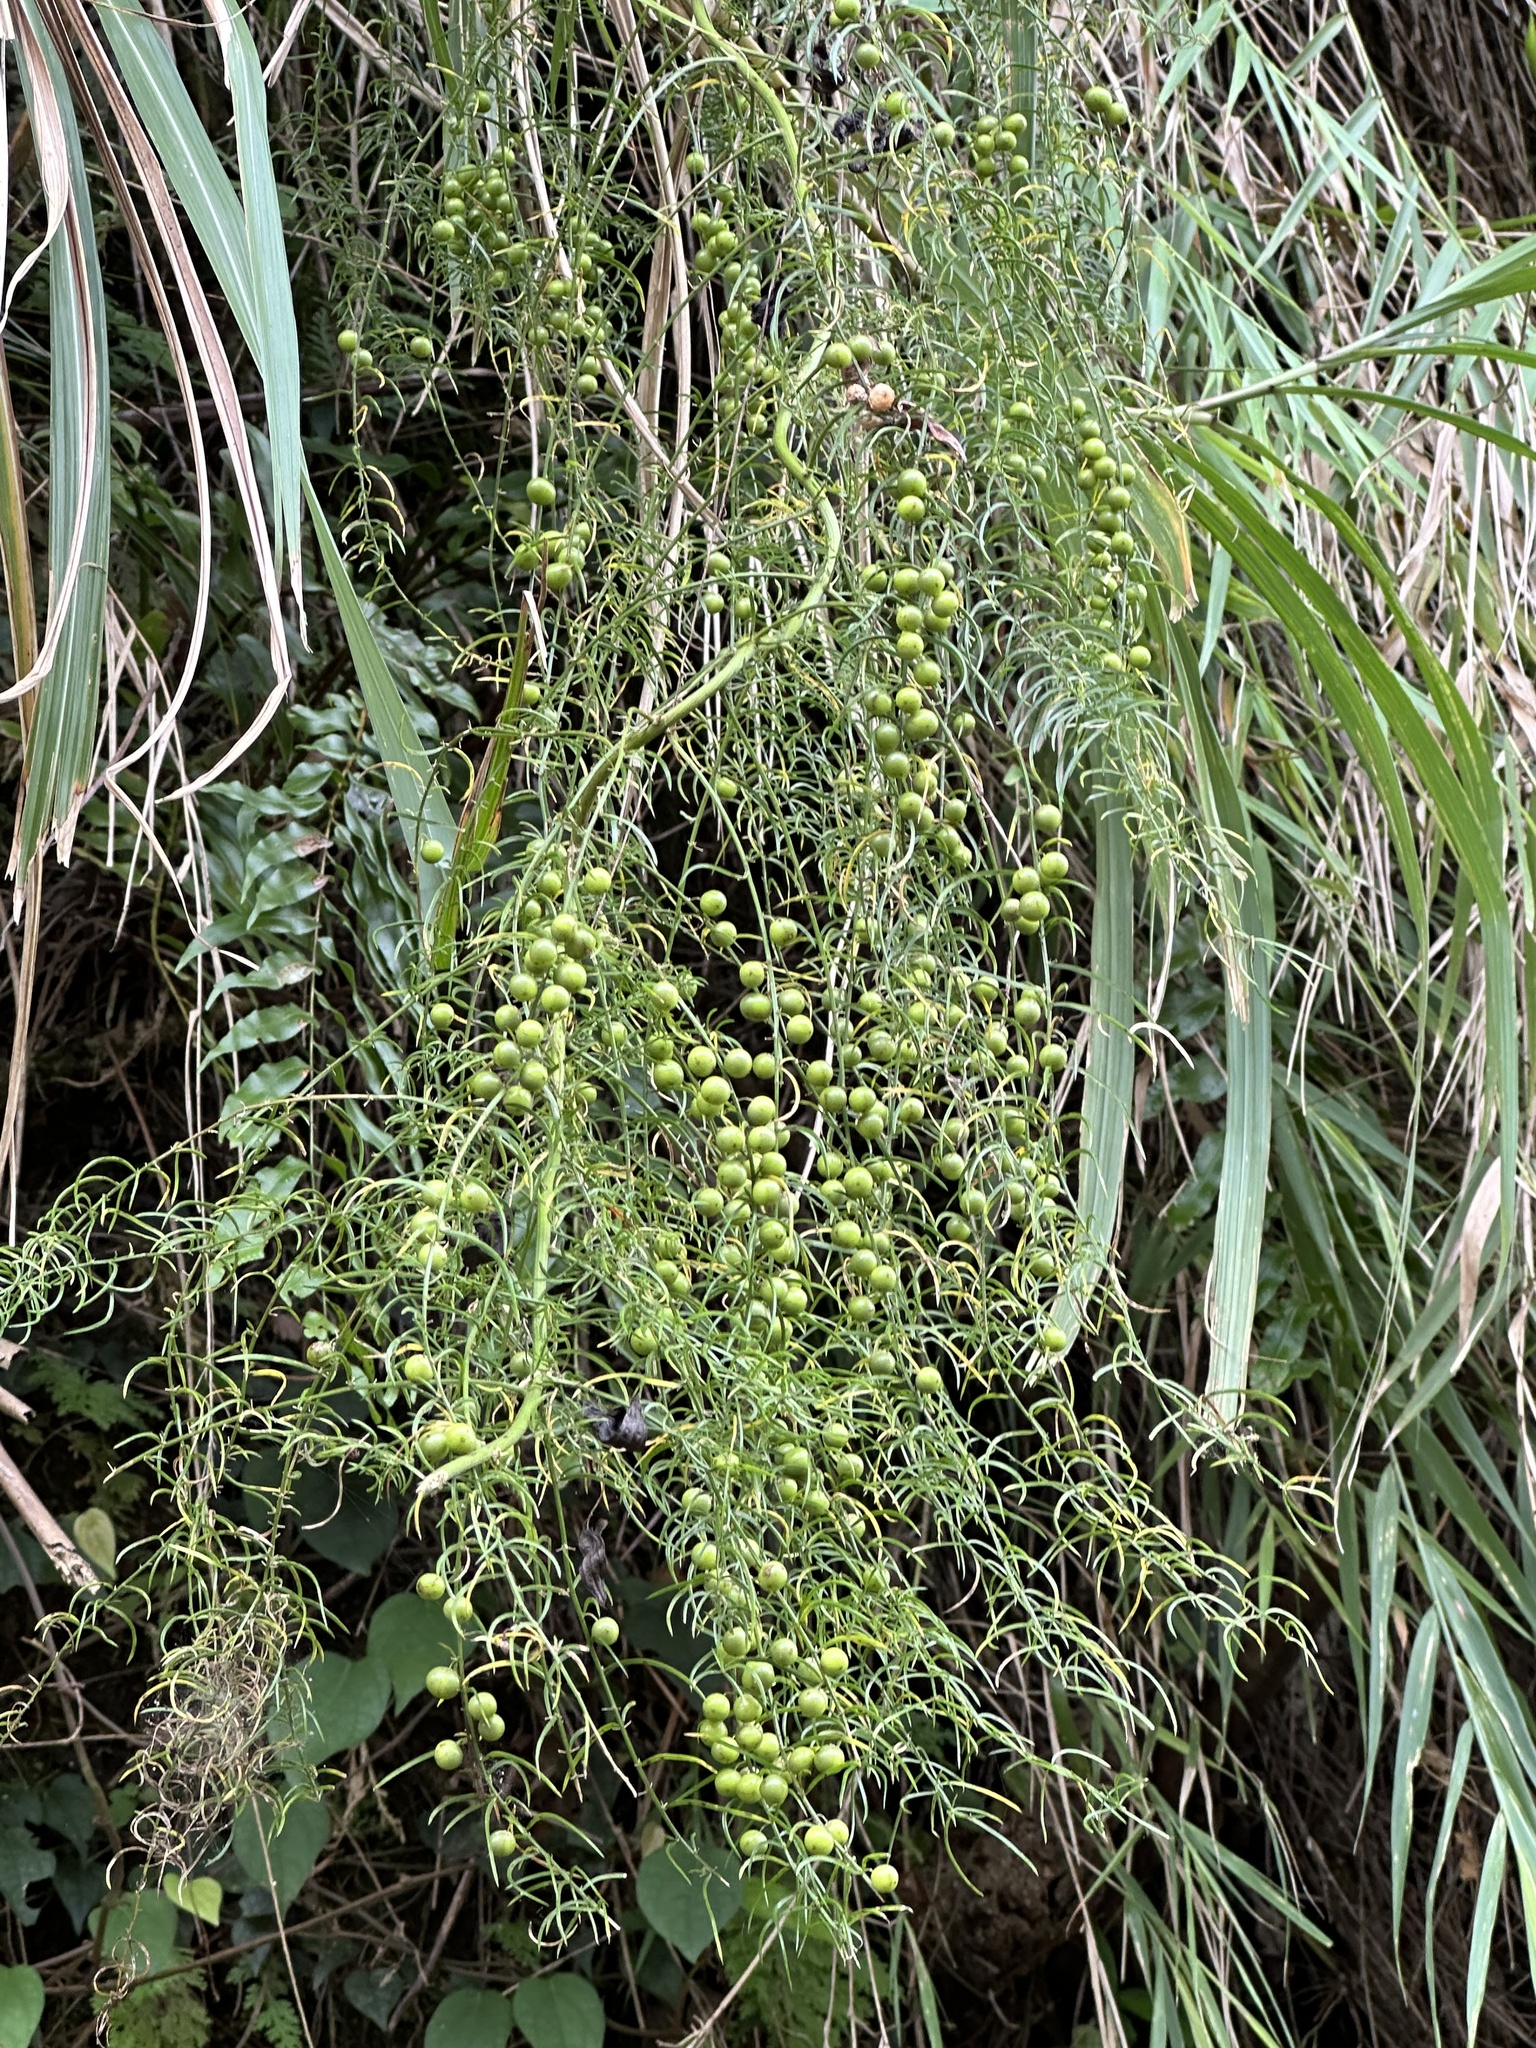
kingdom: Plantae
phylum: Tracheophyta
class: Liliopsida
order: Asparagales
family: Asparagaceae
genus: Asparagus
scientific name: Asparagus cochinchinensis
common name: Chinese asparagus
